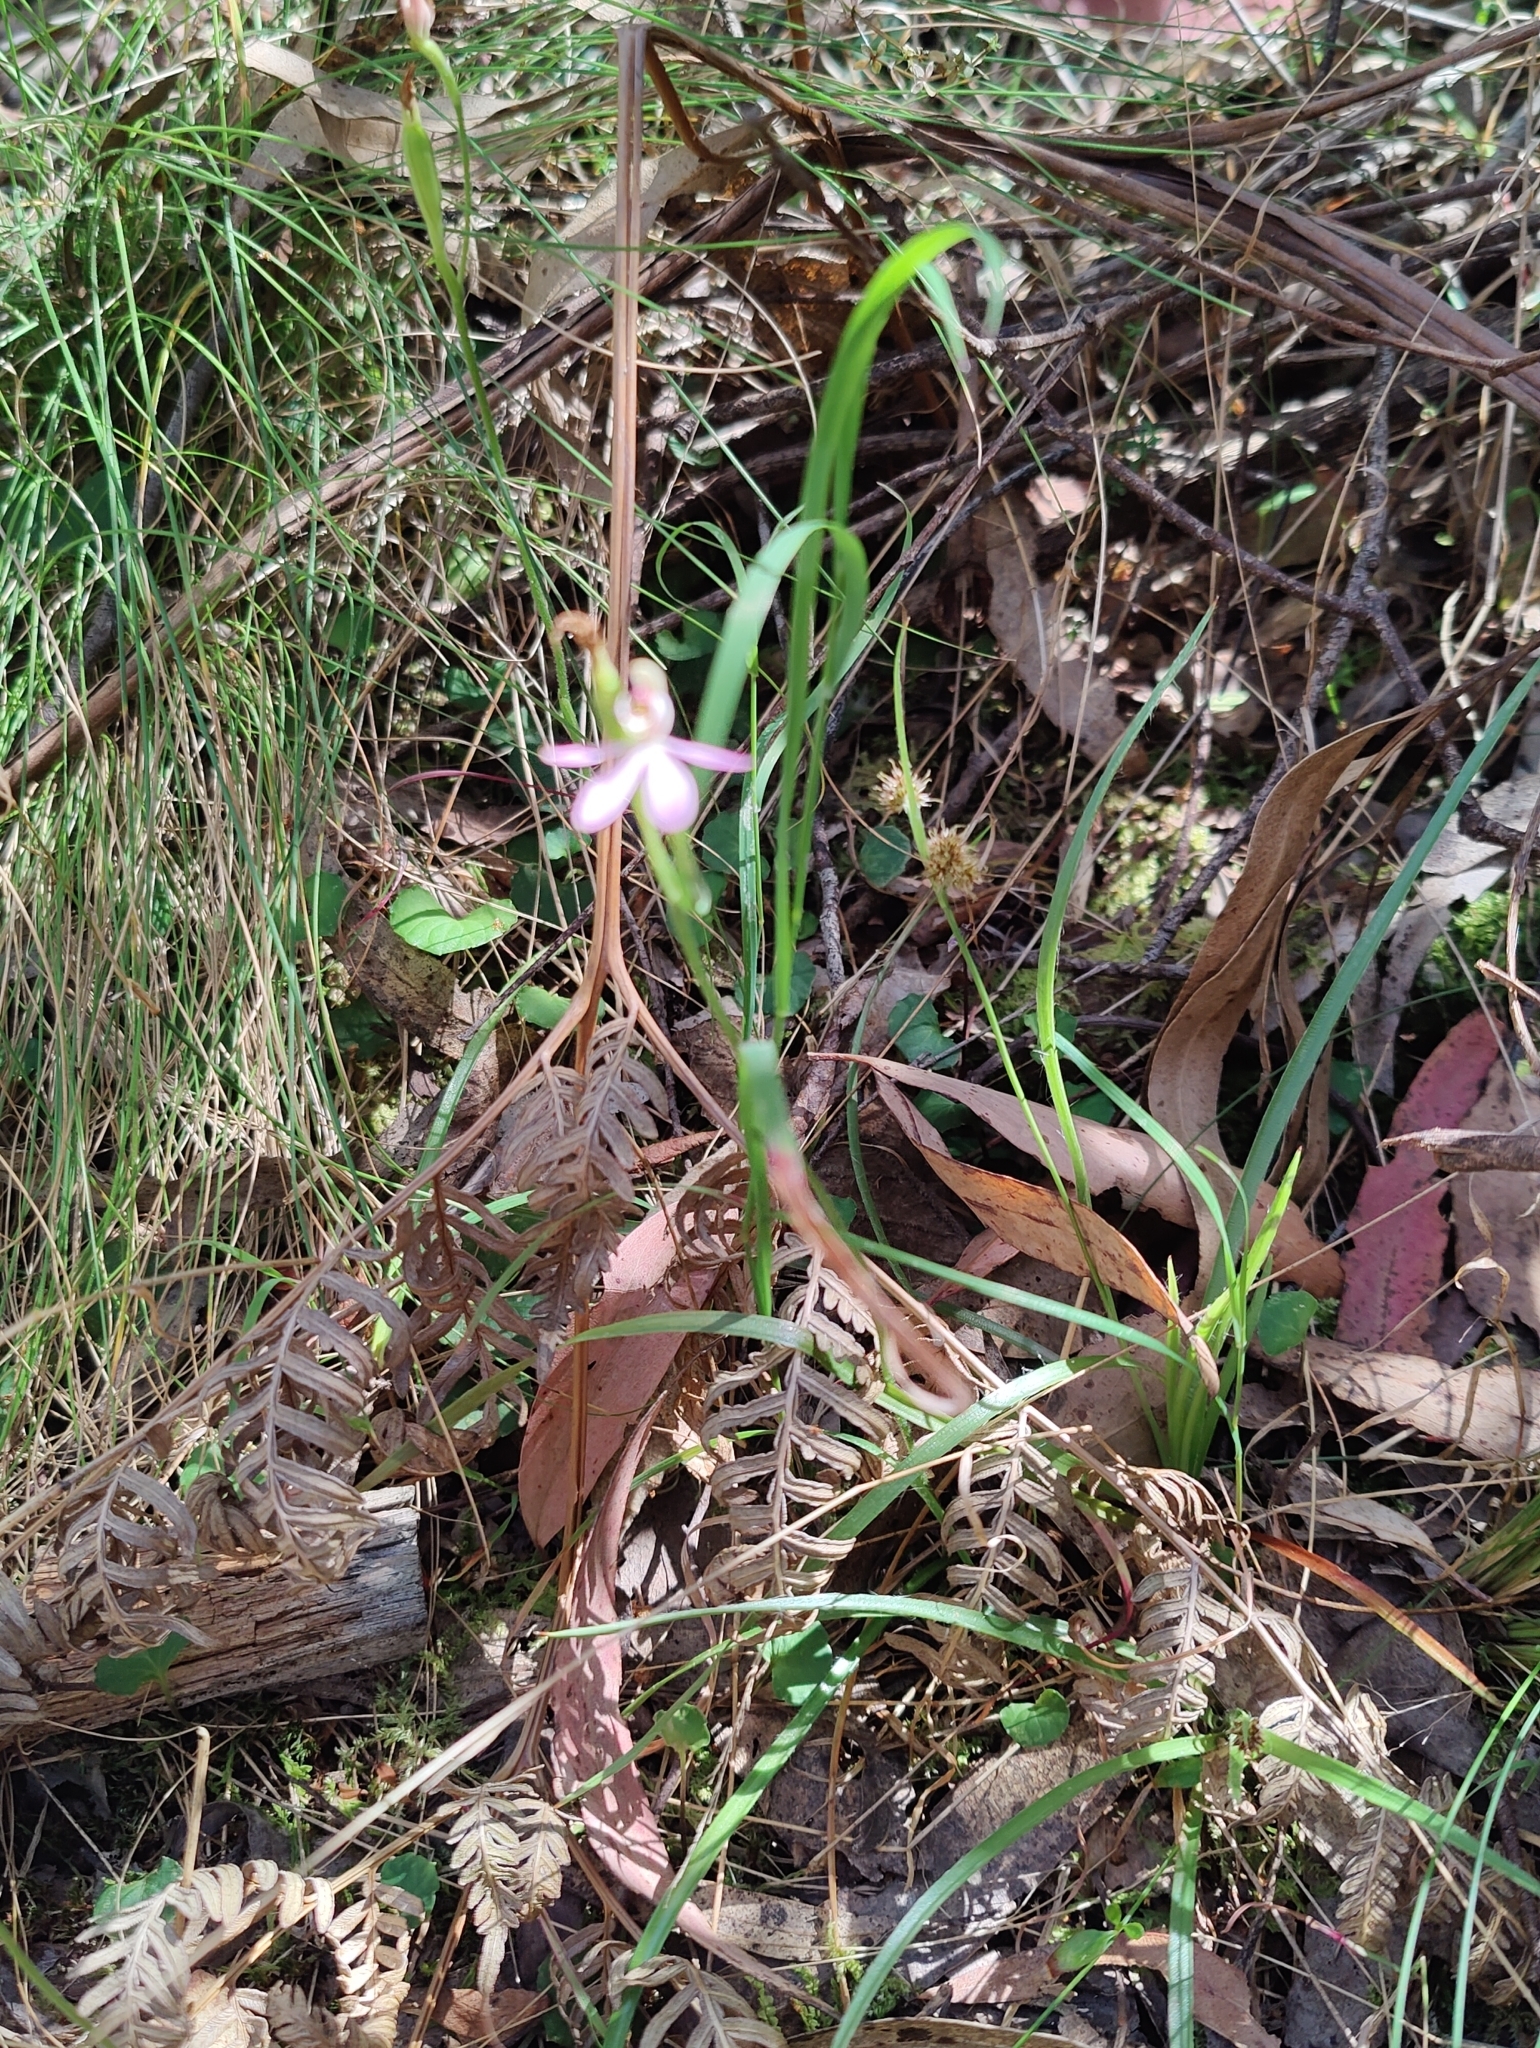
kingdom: Plantae
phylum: Tracheophyta
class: Liliopsida
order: Asparagales
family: Orchidaceae
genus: Caladenia
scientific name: Caladenia carnea
